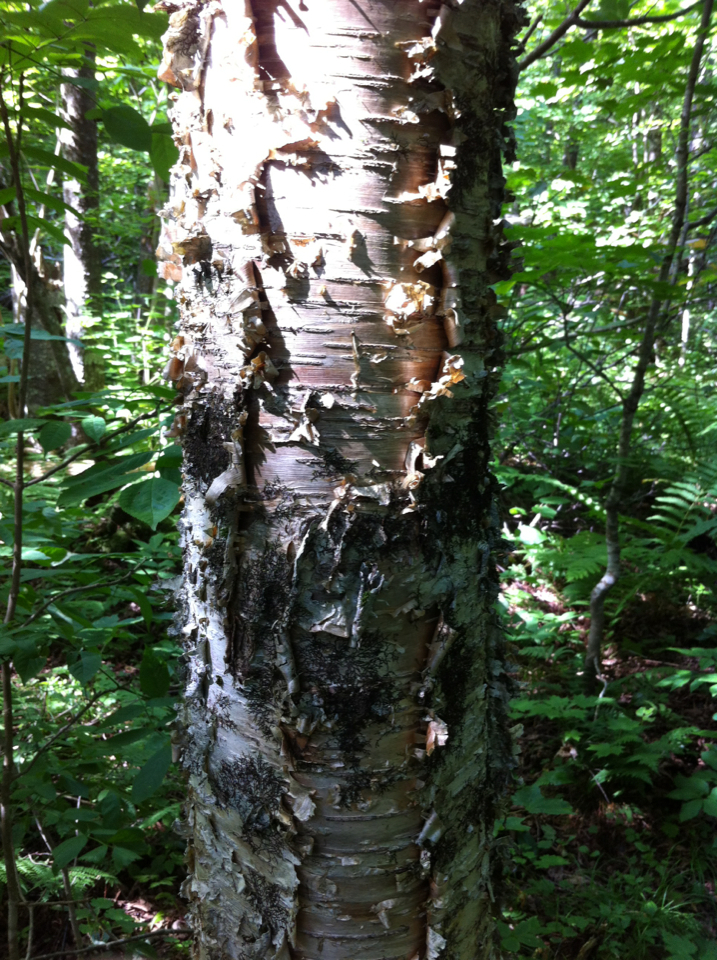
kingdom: Plantae
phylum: Tracheophyta
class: Magnoliopsida
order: Fagales
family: Betulaceae
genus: Betula
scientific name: Betula alleghaniensis
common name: Yellow birch
